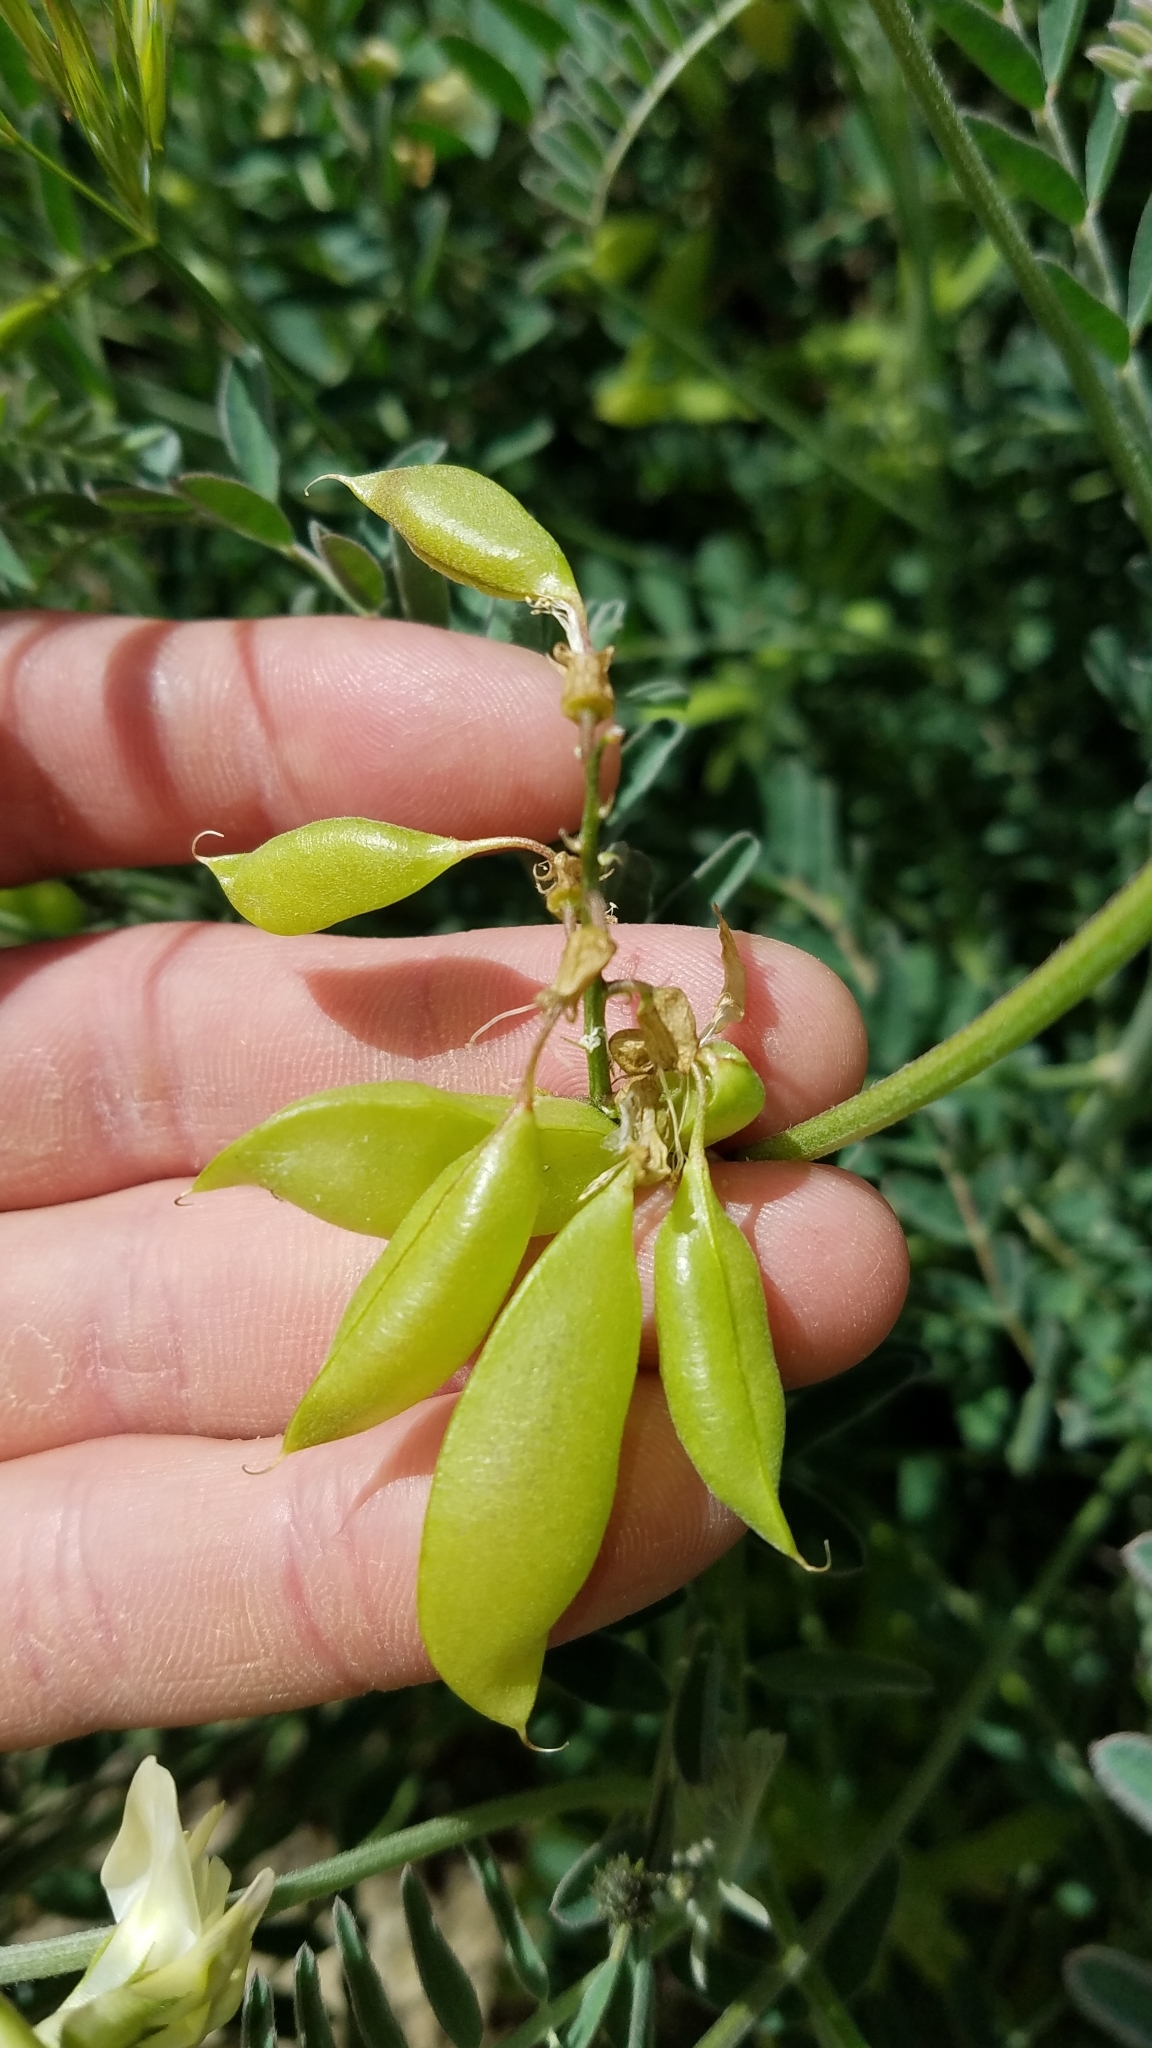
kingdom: Plantae
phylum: Tracheophyta
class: Magnoliopsida
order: Fabales
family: Fabaceae
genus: Astragalus
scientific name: Astragalus trichopodus
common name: Santa barbara milk-vetch
